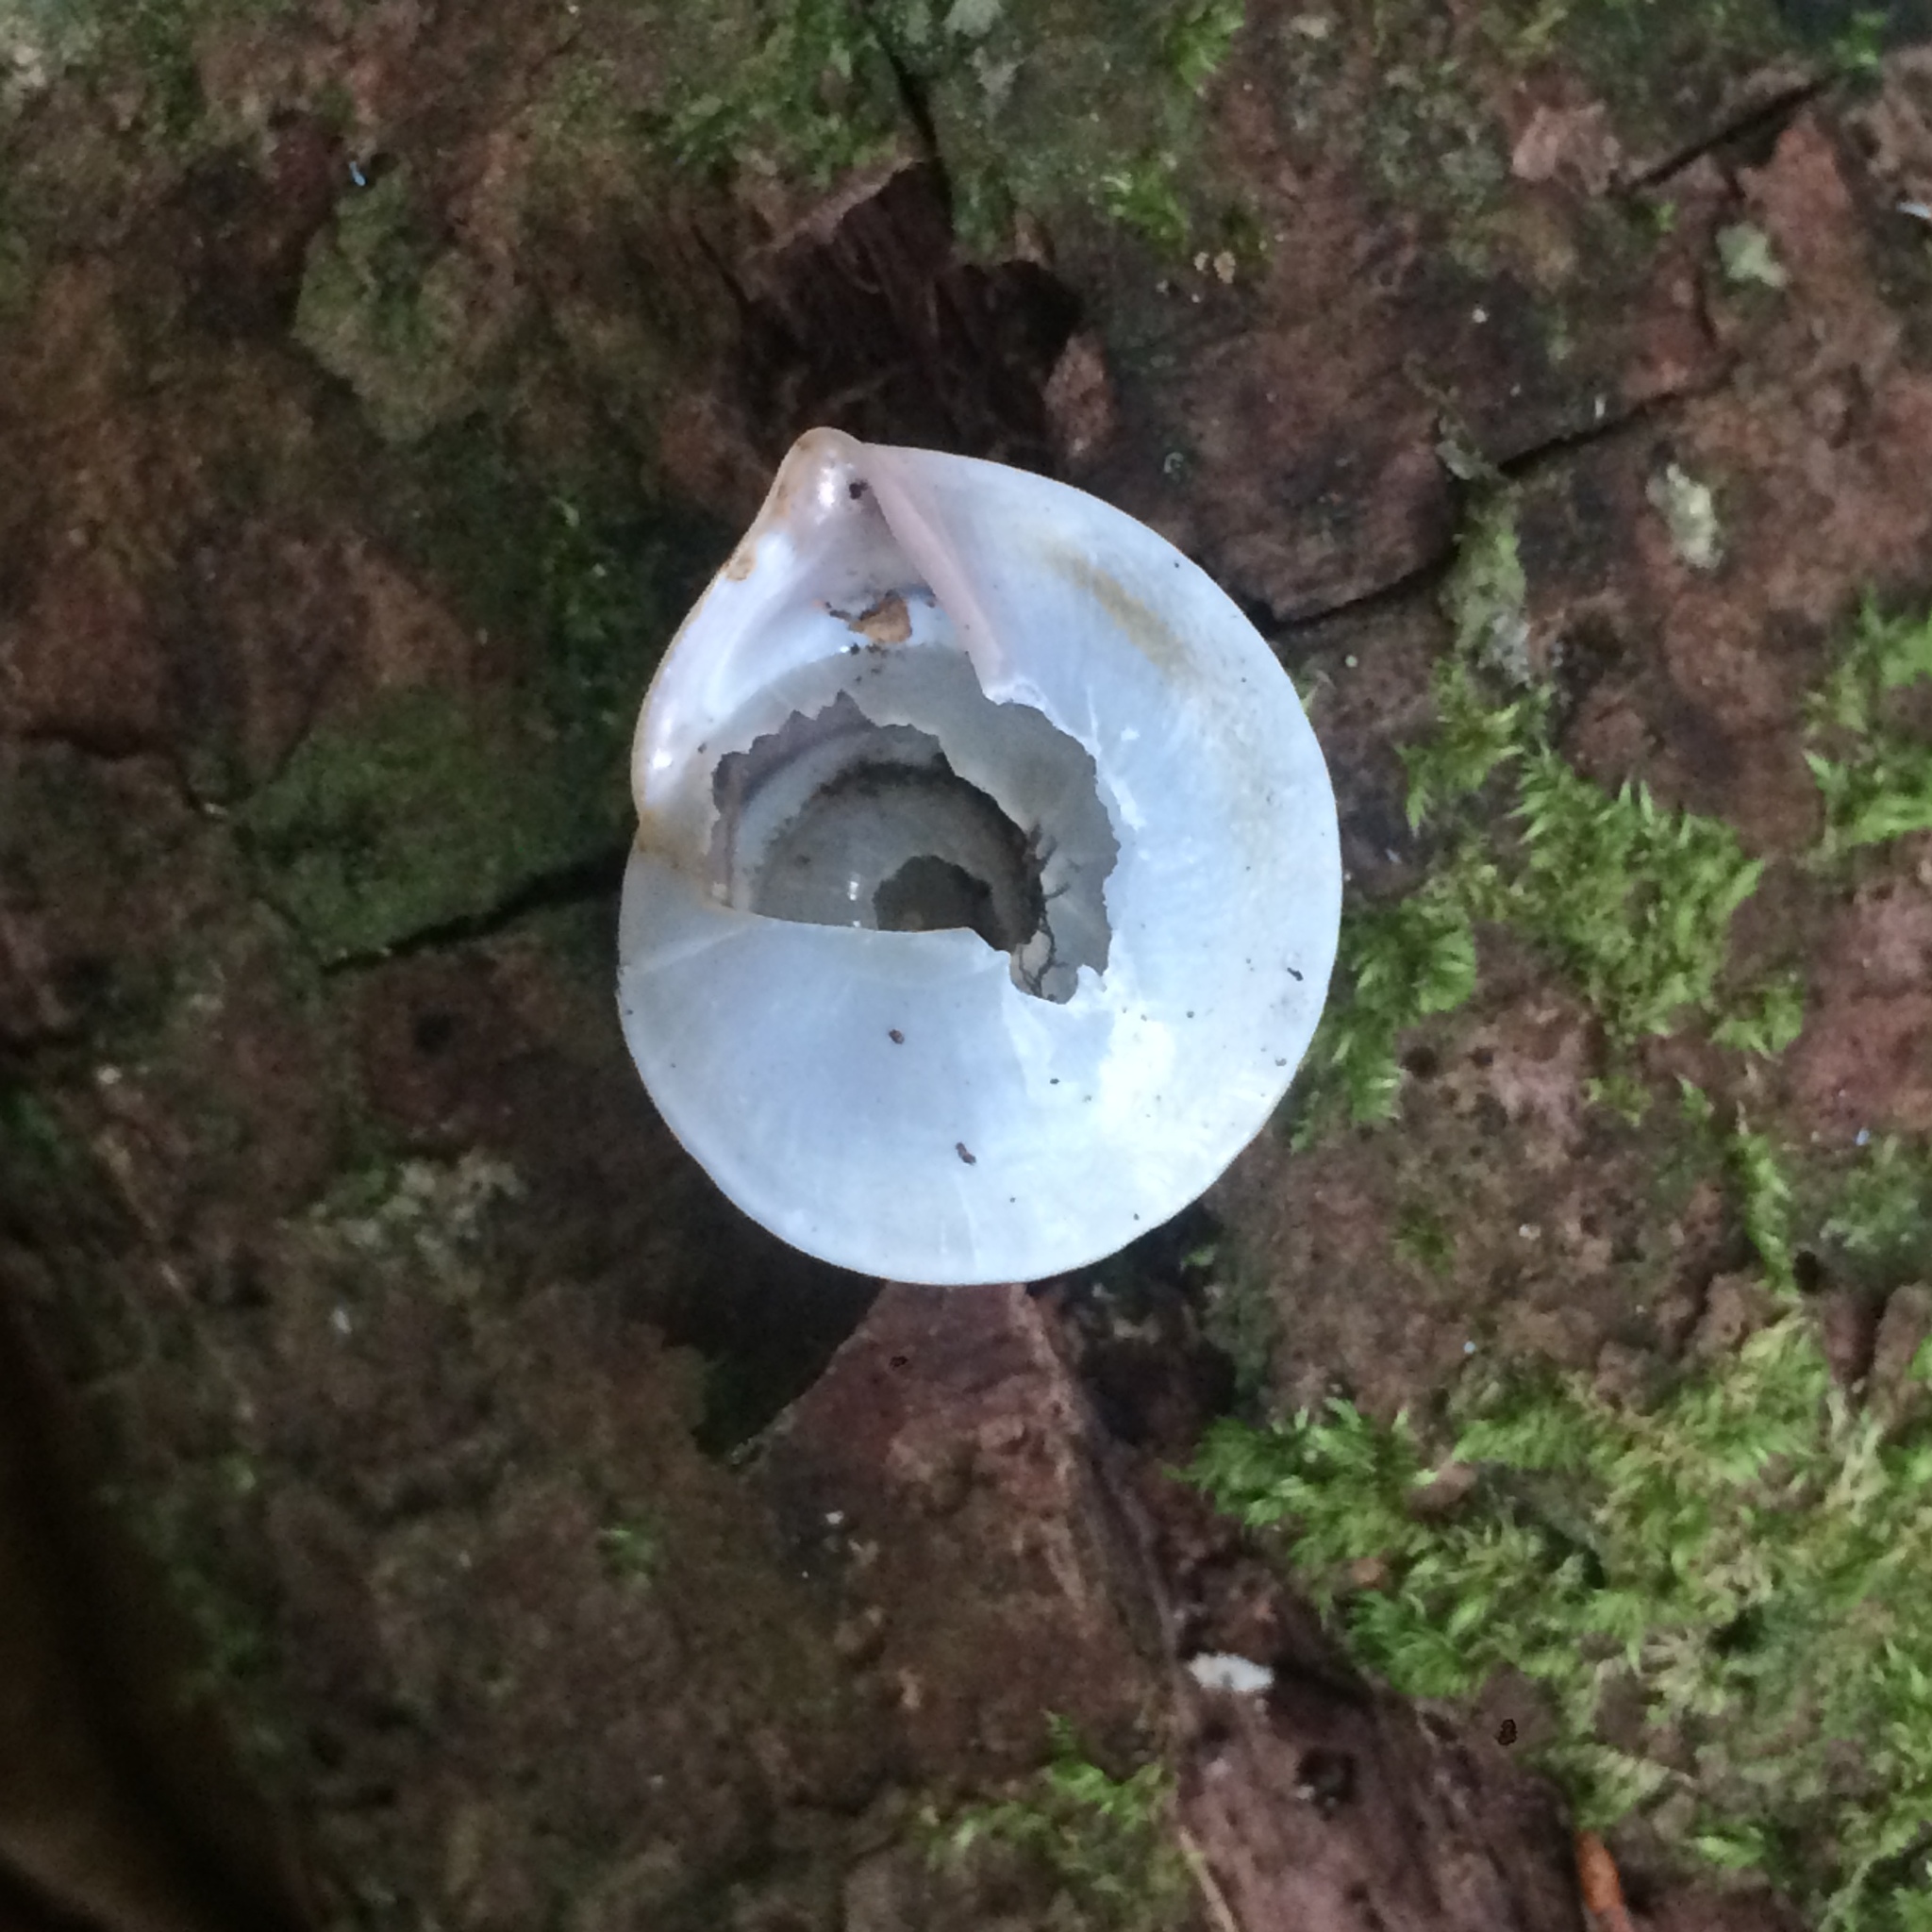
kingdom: Animalia
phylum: Mollusca
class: Gastropoda
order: Stylommatophora
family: Bulimulidae
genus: Oxychona
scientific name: Oxychona bifasciata
